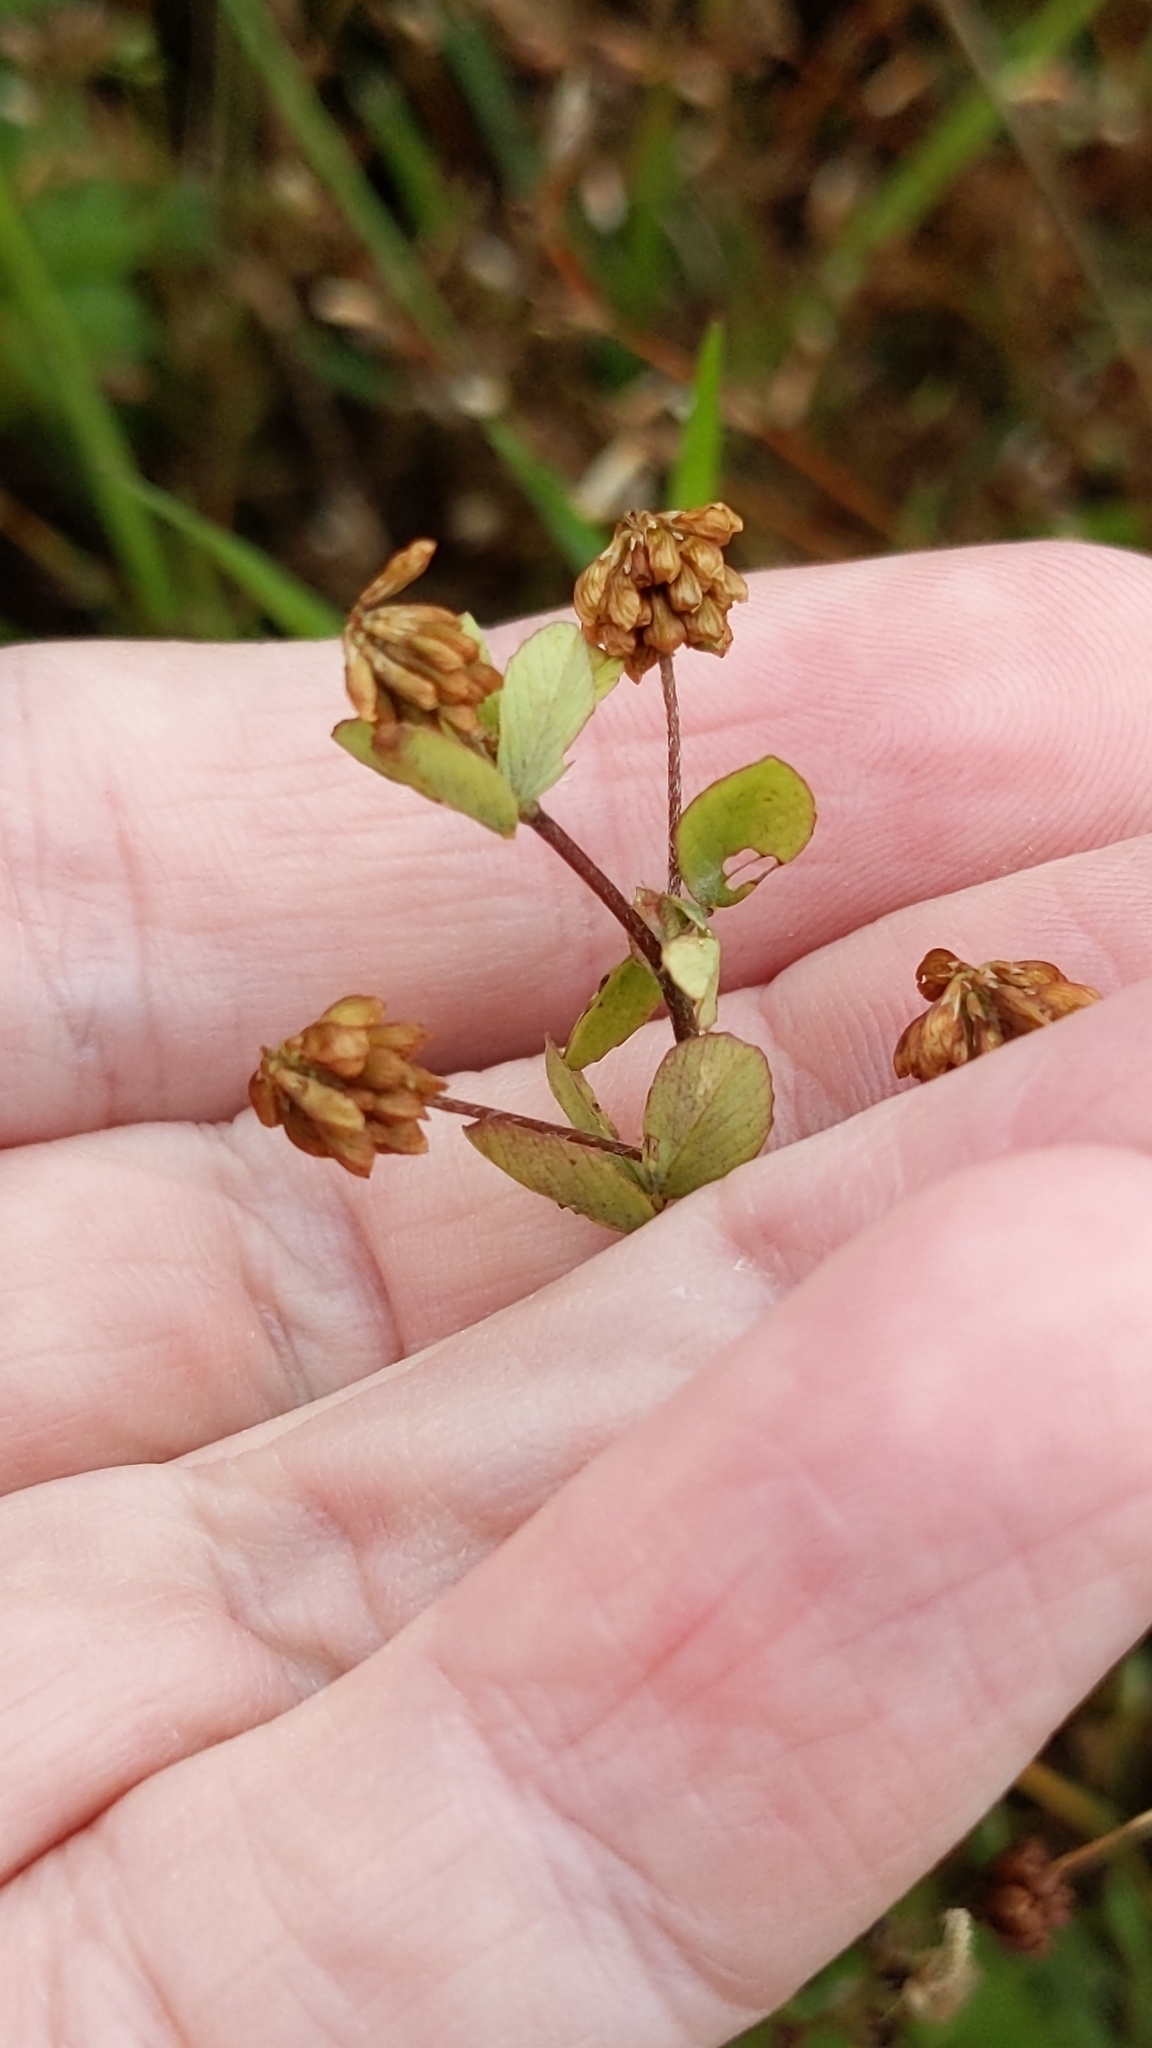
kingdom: Plantae
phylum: Tracheophyta
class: Magnoliopsida
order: Fabales
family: Fabaceae
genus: Trifolium
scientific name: Trifolium dubium
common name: Suckling clover
